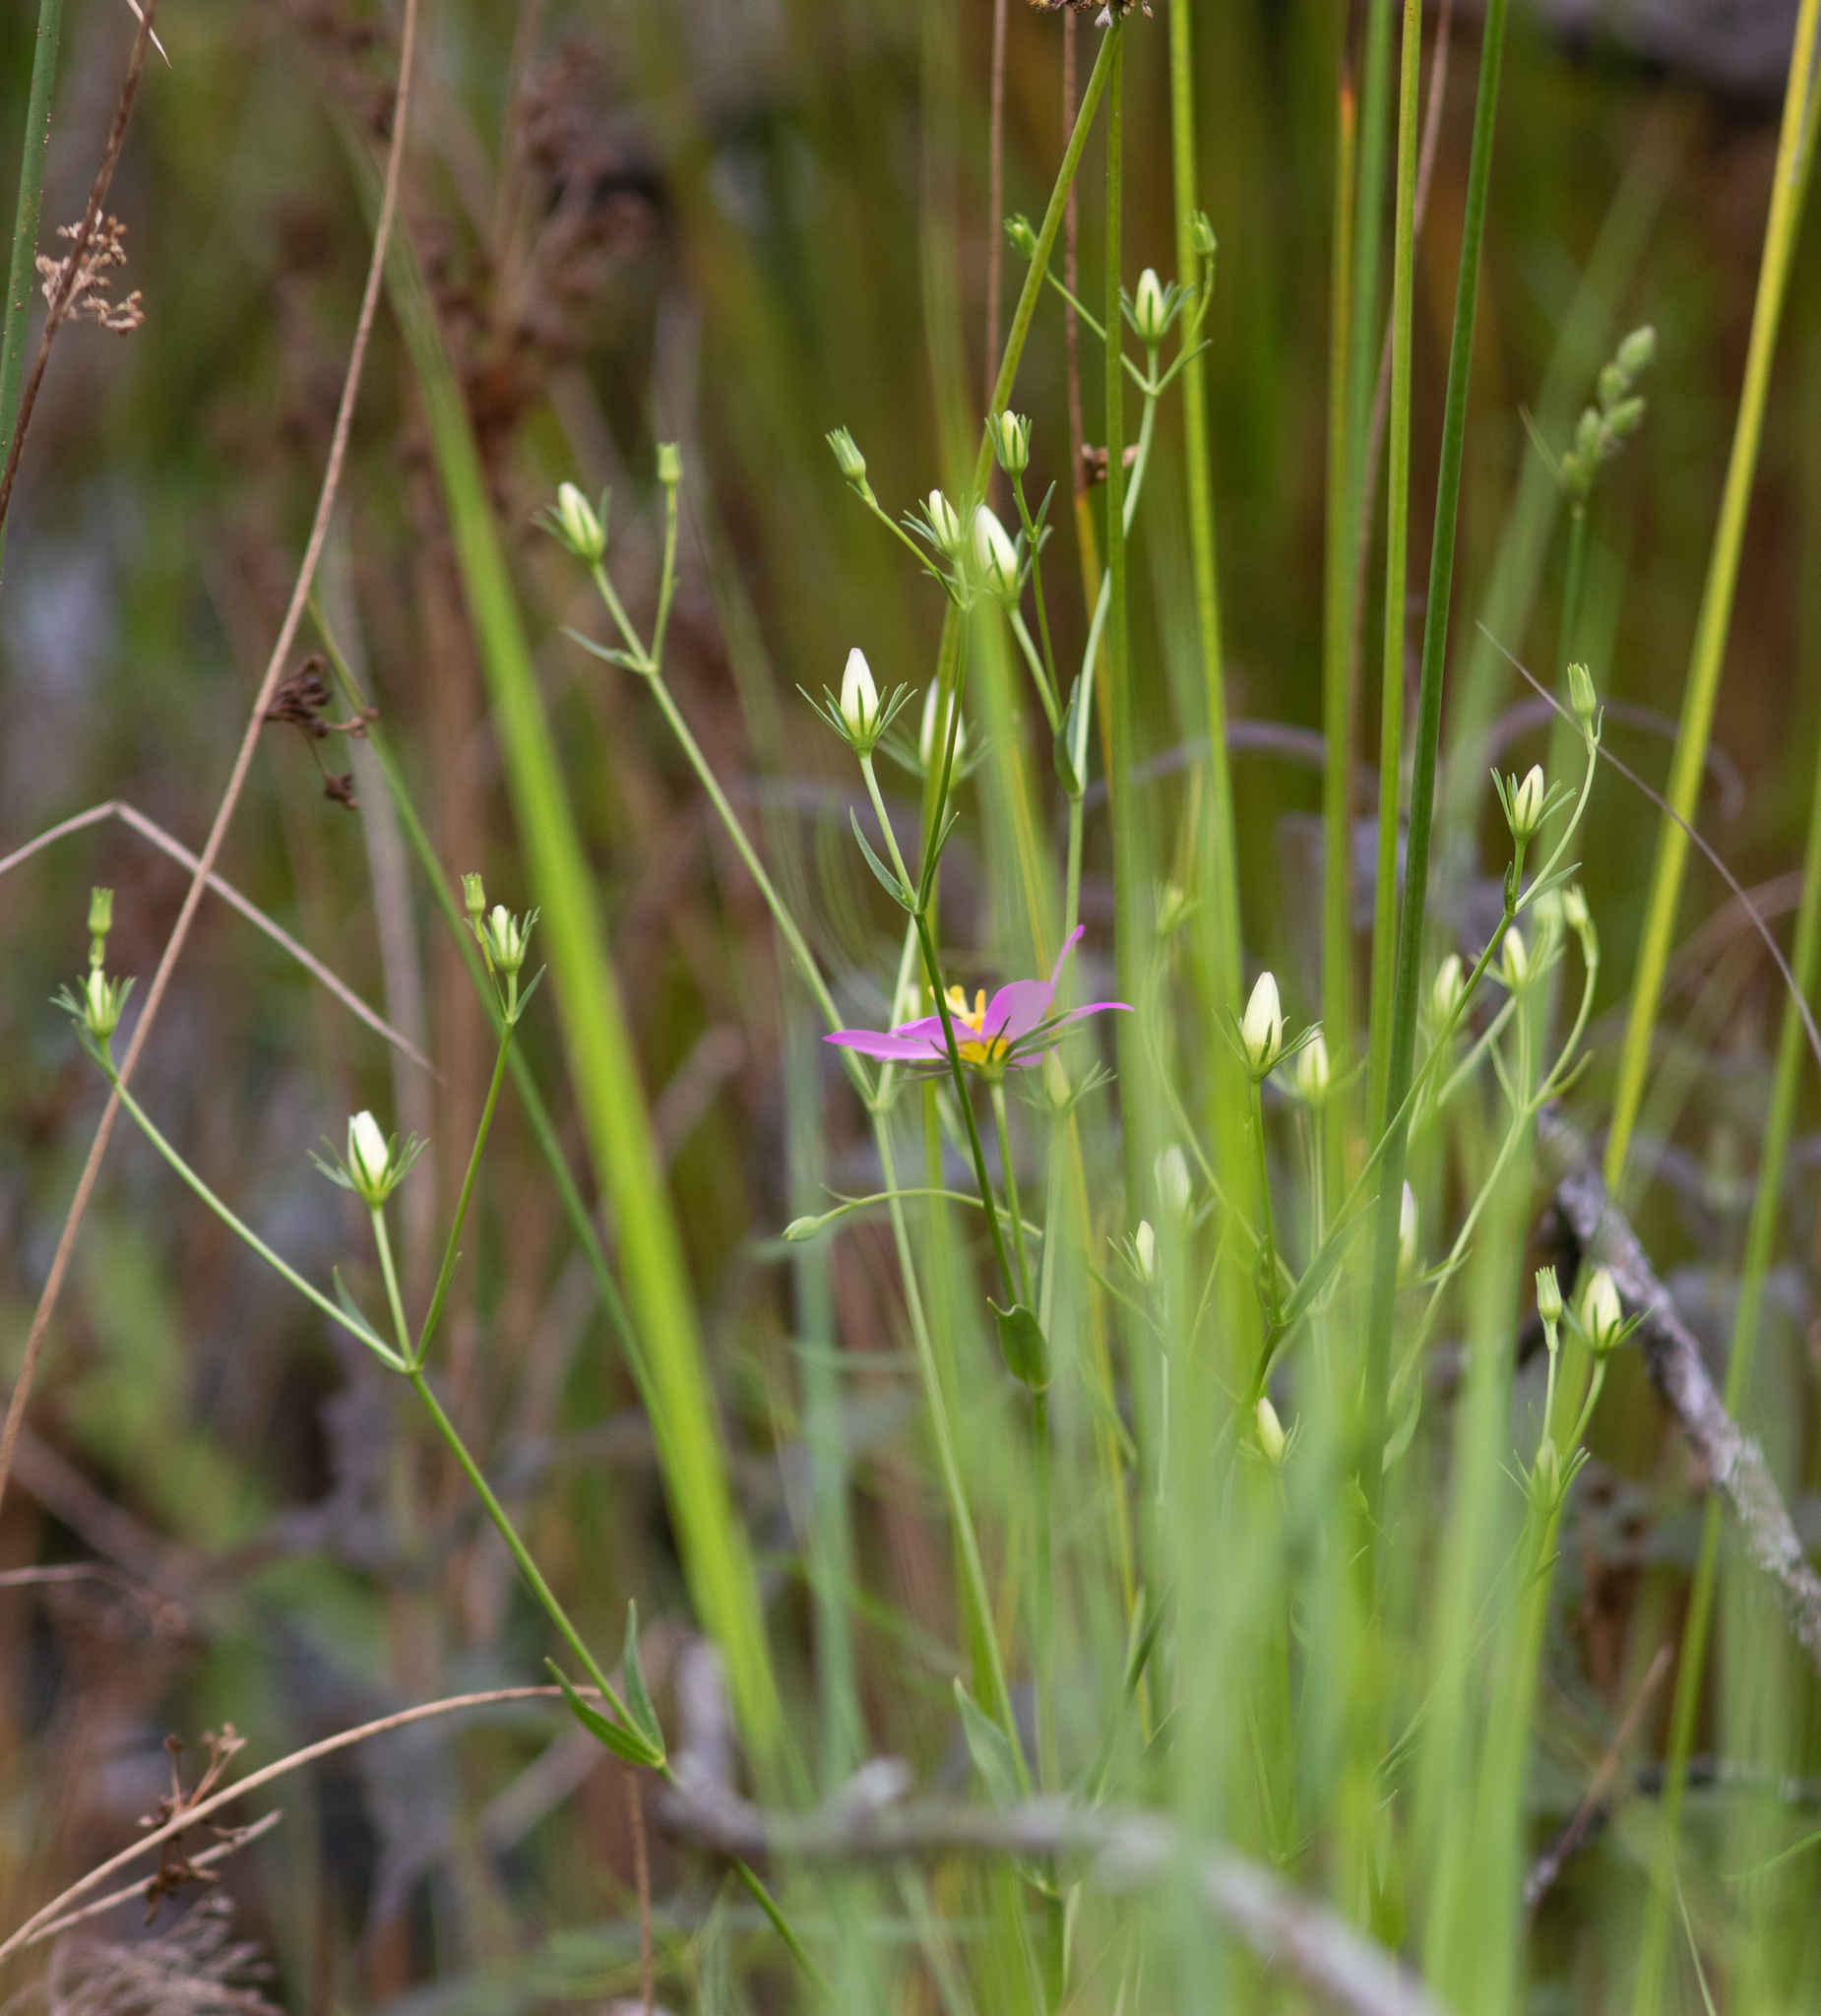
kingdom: Plantae
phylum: Tracheophyta
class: Magnoliopsida
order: Gentianales
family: Gentianaceae
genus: Sabatia
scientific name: Sabatia kennedyana
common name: Plymouth gentian
